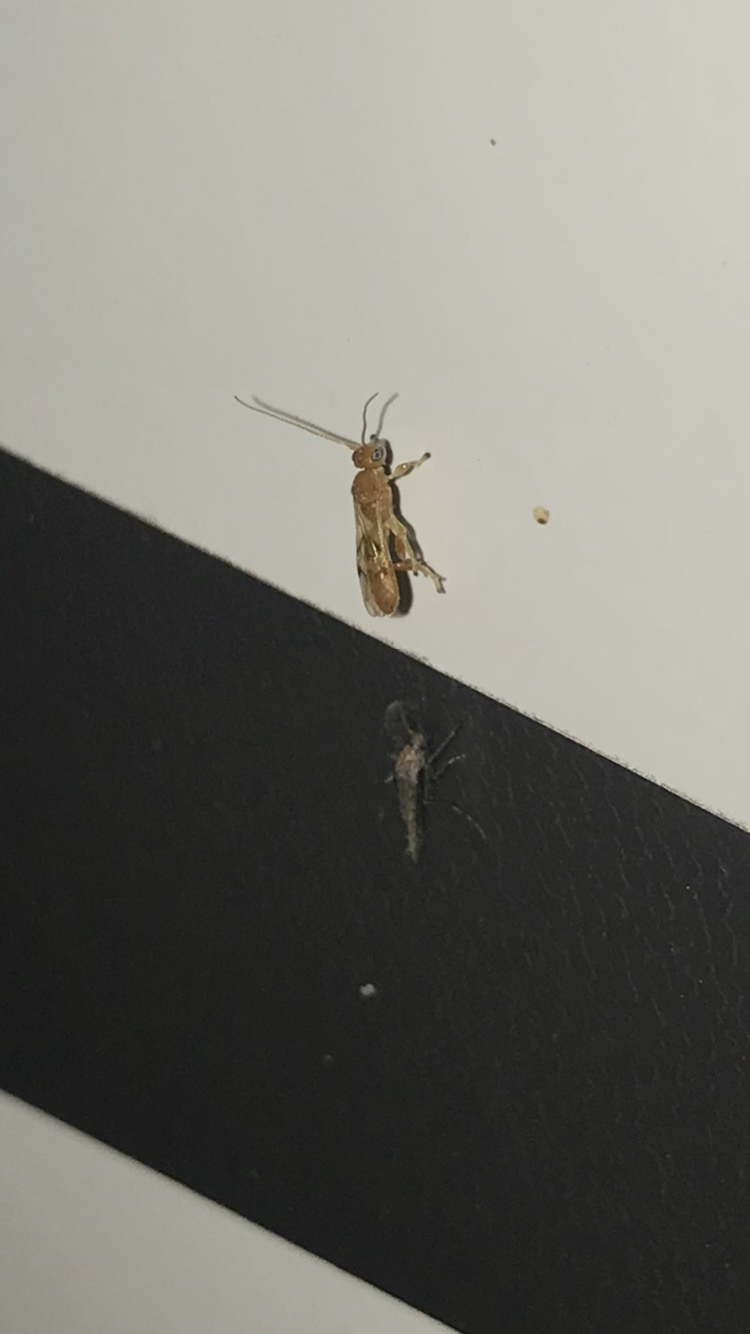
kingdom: Animalia
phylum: Arthropoda
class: Insecta
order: Hymenoptera
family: Braconidae
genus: Yelicones
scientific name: Yelicones delicatus
